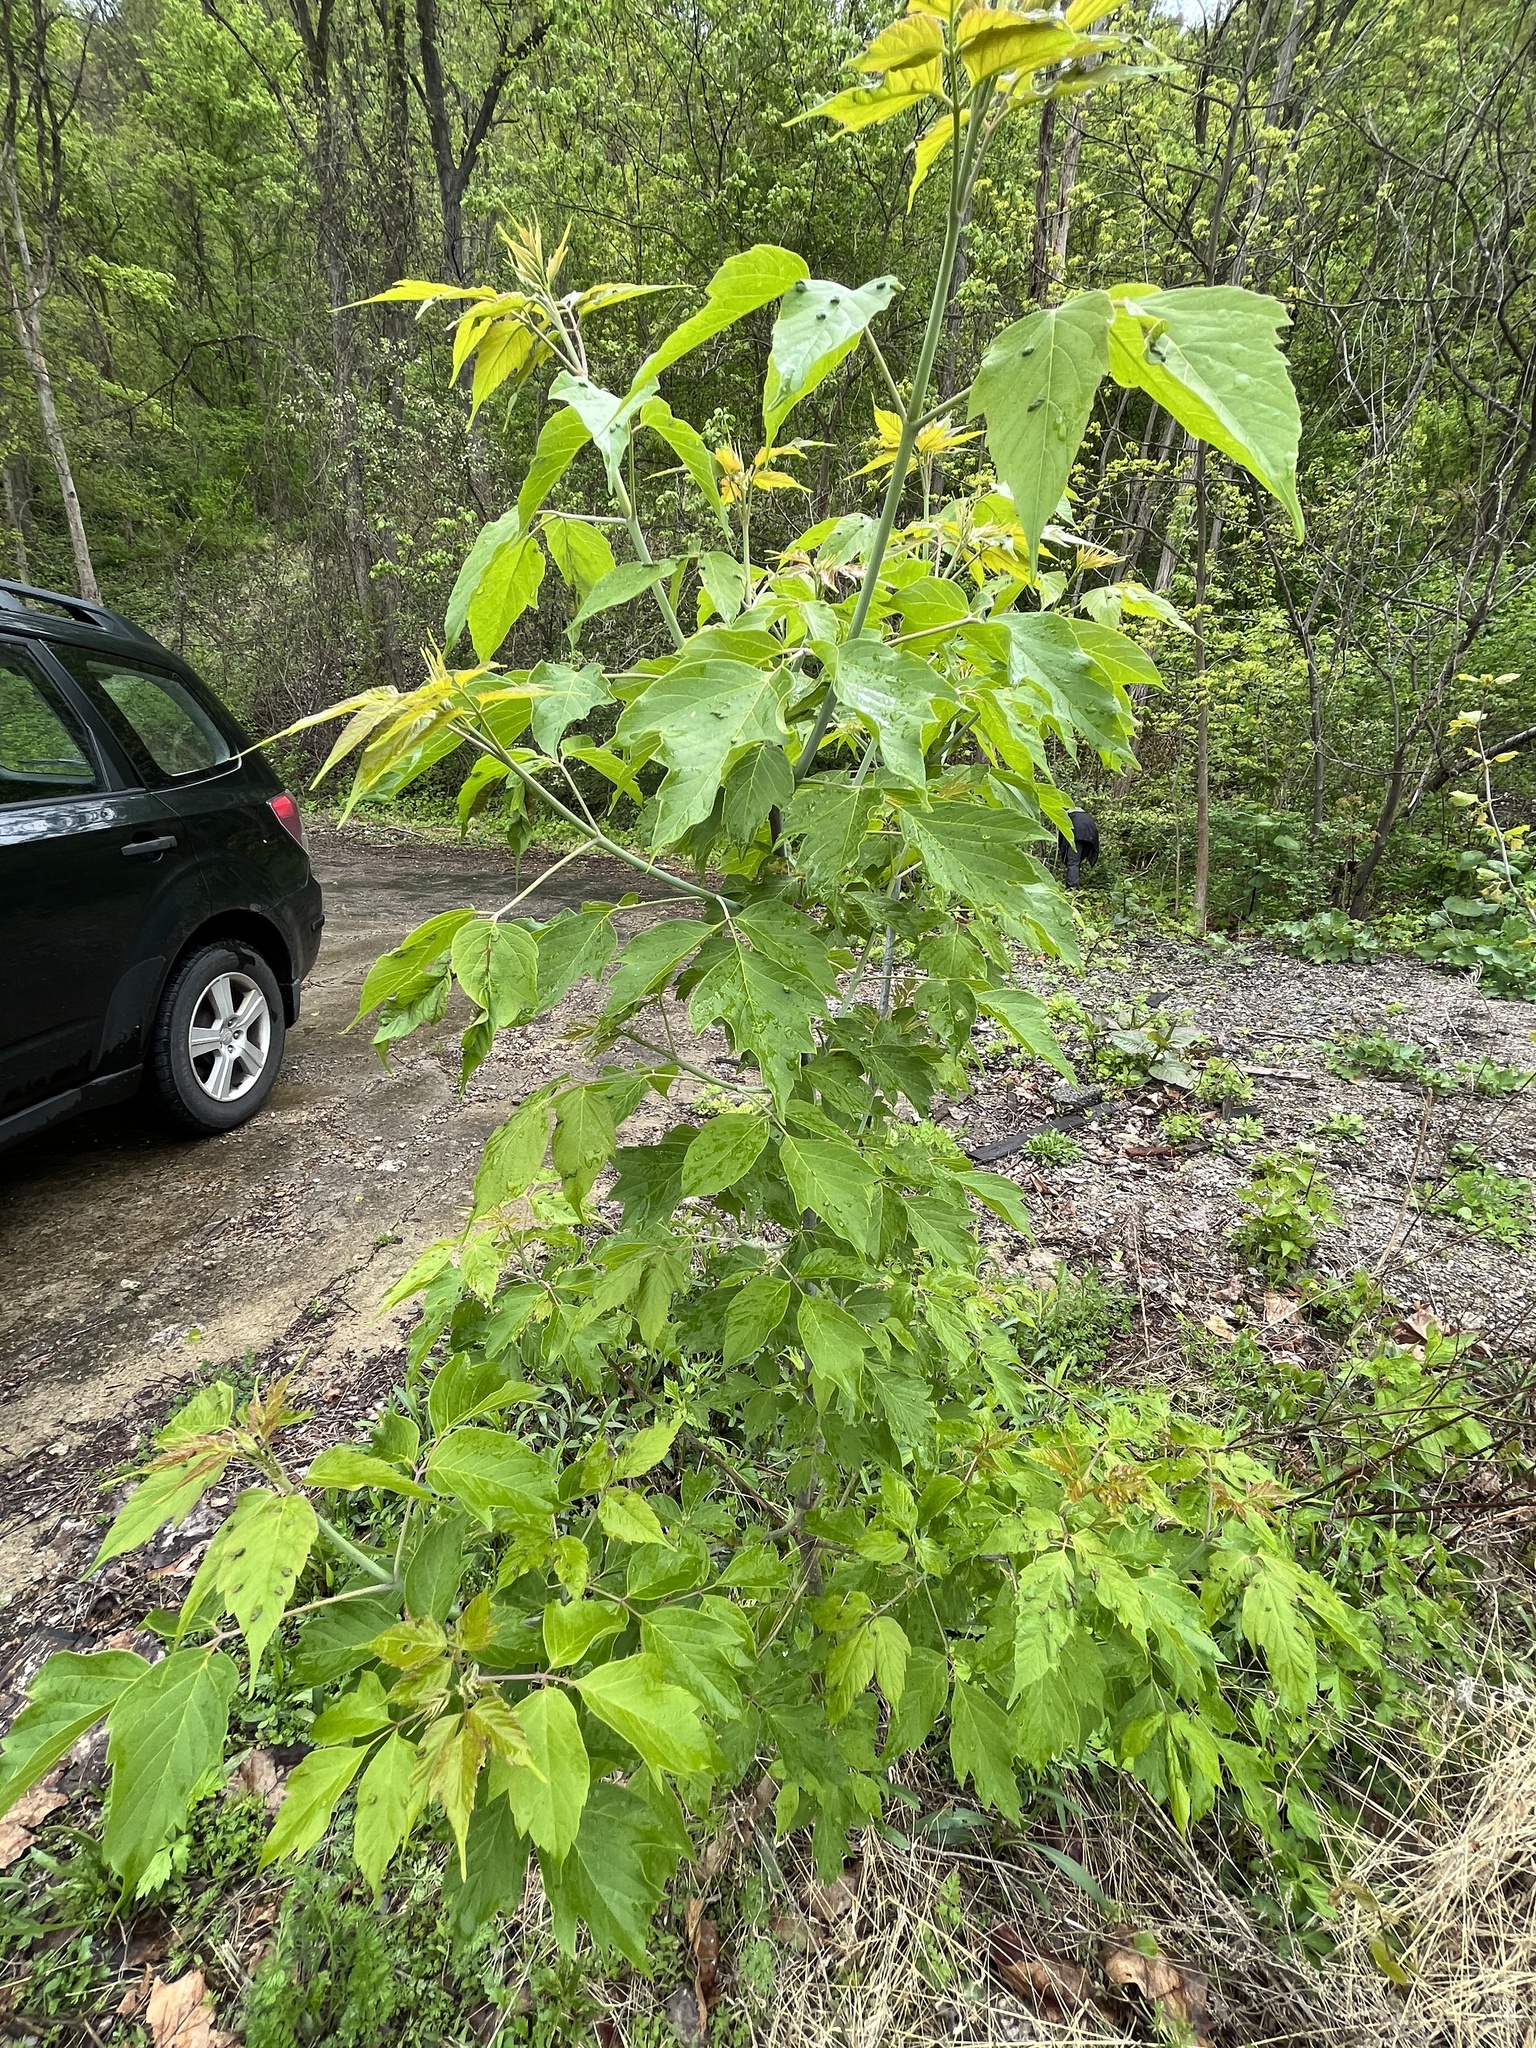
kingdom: Plantae
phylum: Tracheophyta
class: Magnoliopsida
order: Sapindales
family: Sapindaceae
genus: Acer
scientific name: Acer negundo
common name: Ashleaf maple
